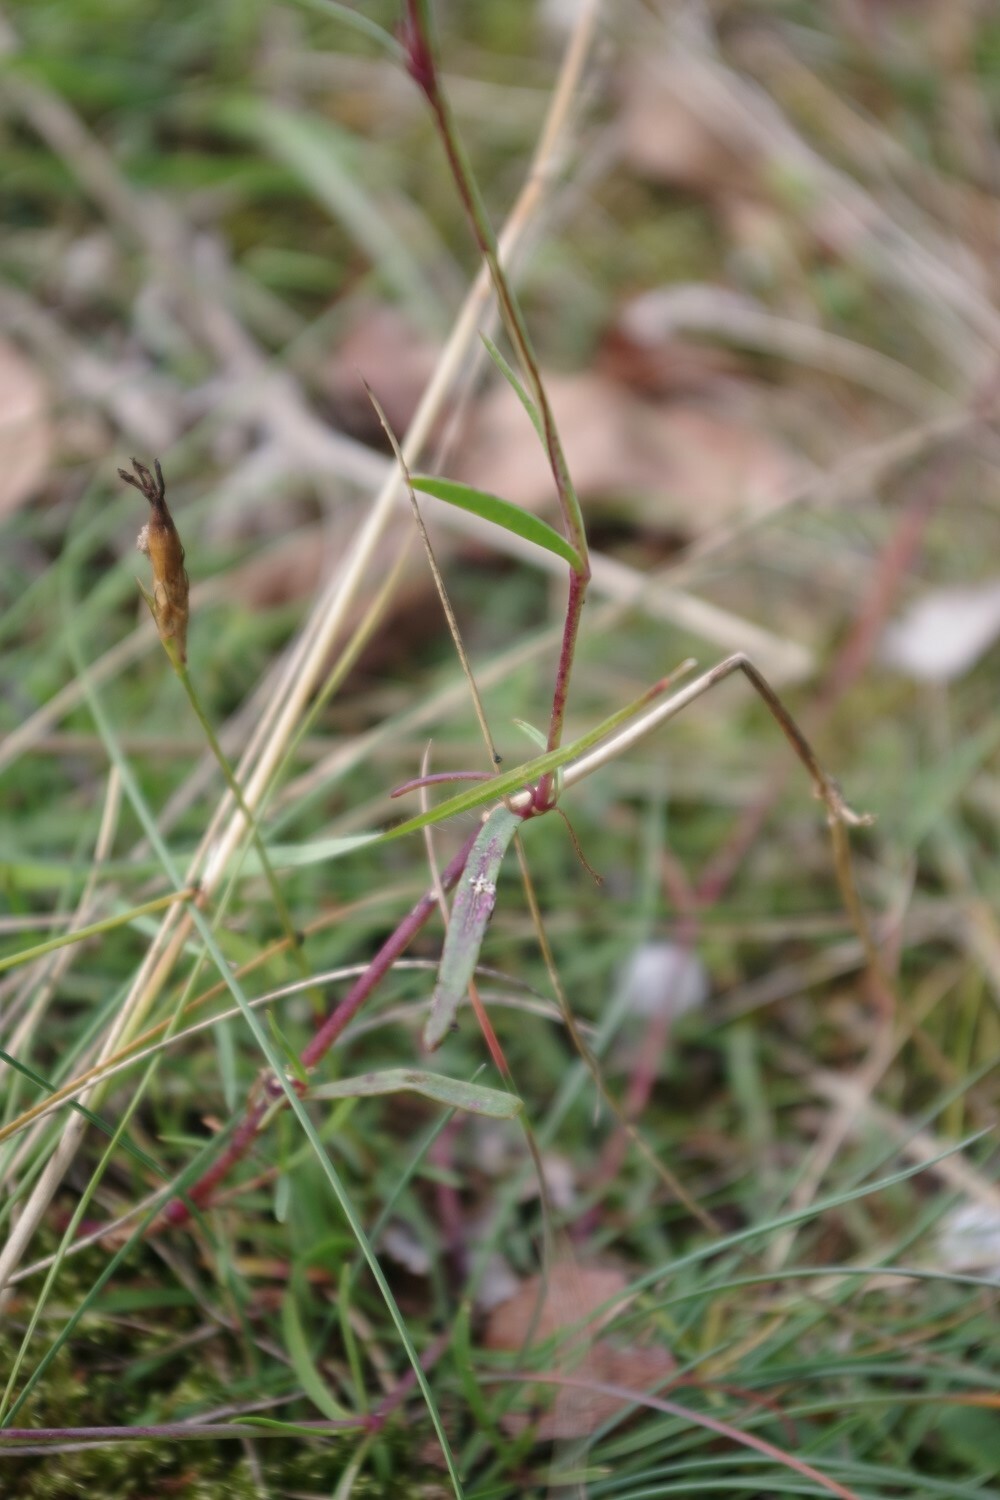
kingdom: Plantae
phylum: Tracheophyta
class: Magnoliopsida
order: Caryophyllales
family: Caryophyllaceae
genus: Gypsophila
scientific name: Gypsophila fastigiata
